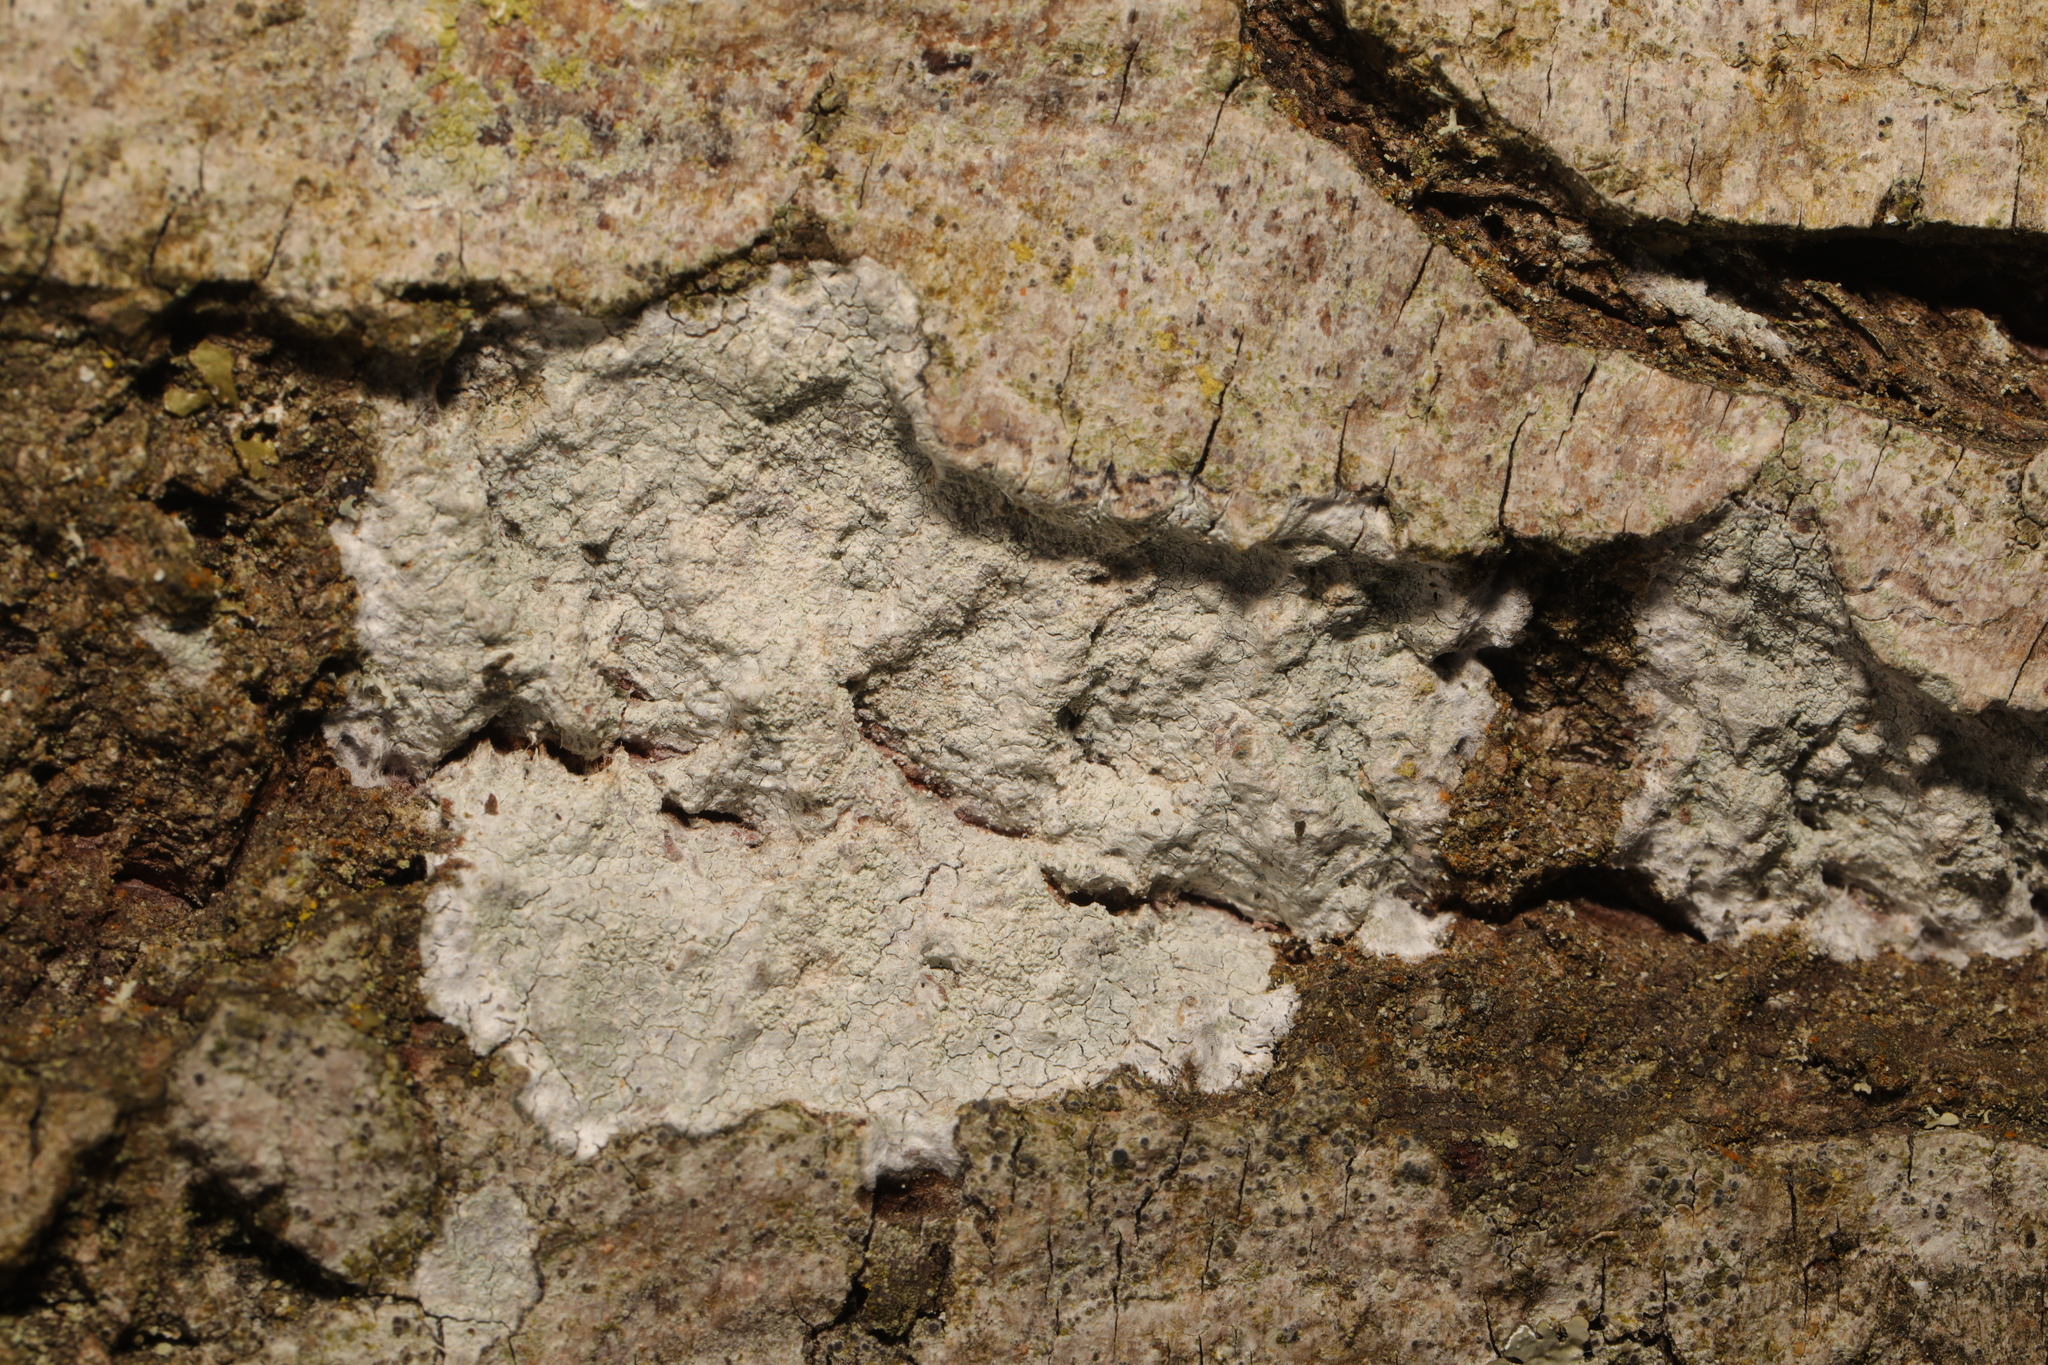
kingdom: Fungi
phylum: Ascomycota
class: Lecanoromycetes
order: Ostropales
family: Phlyctidaceae
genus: Phlyctis
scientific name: Phlyctis argena
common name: Whitewash lichen
